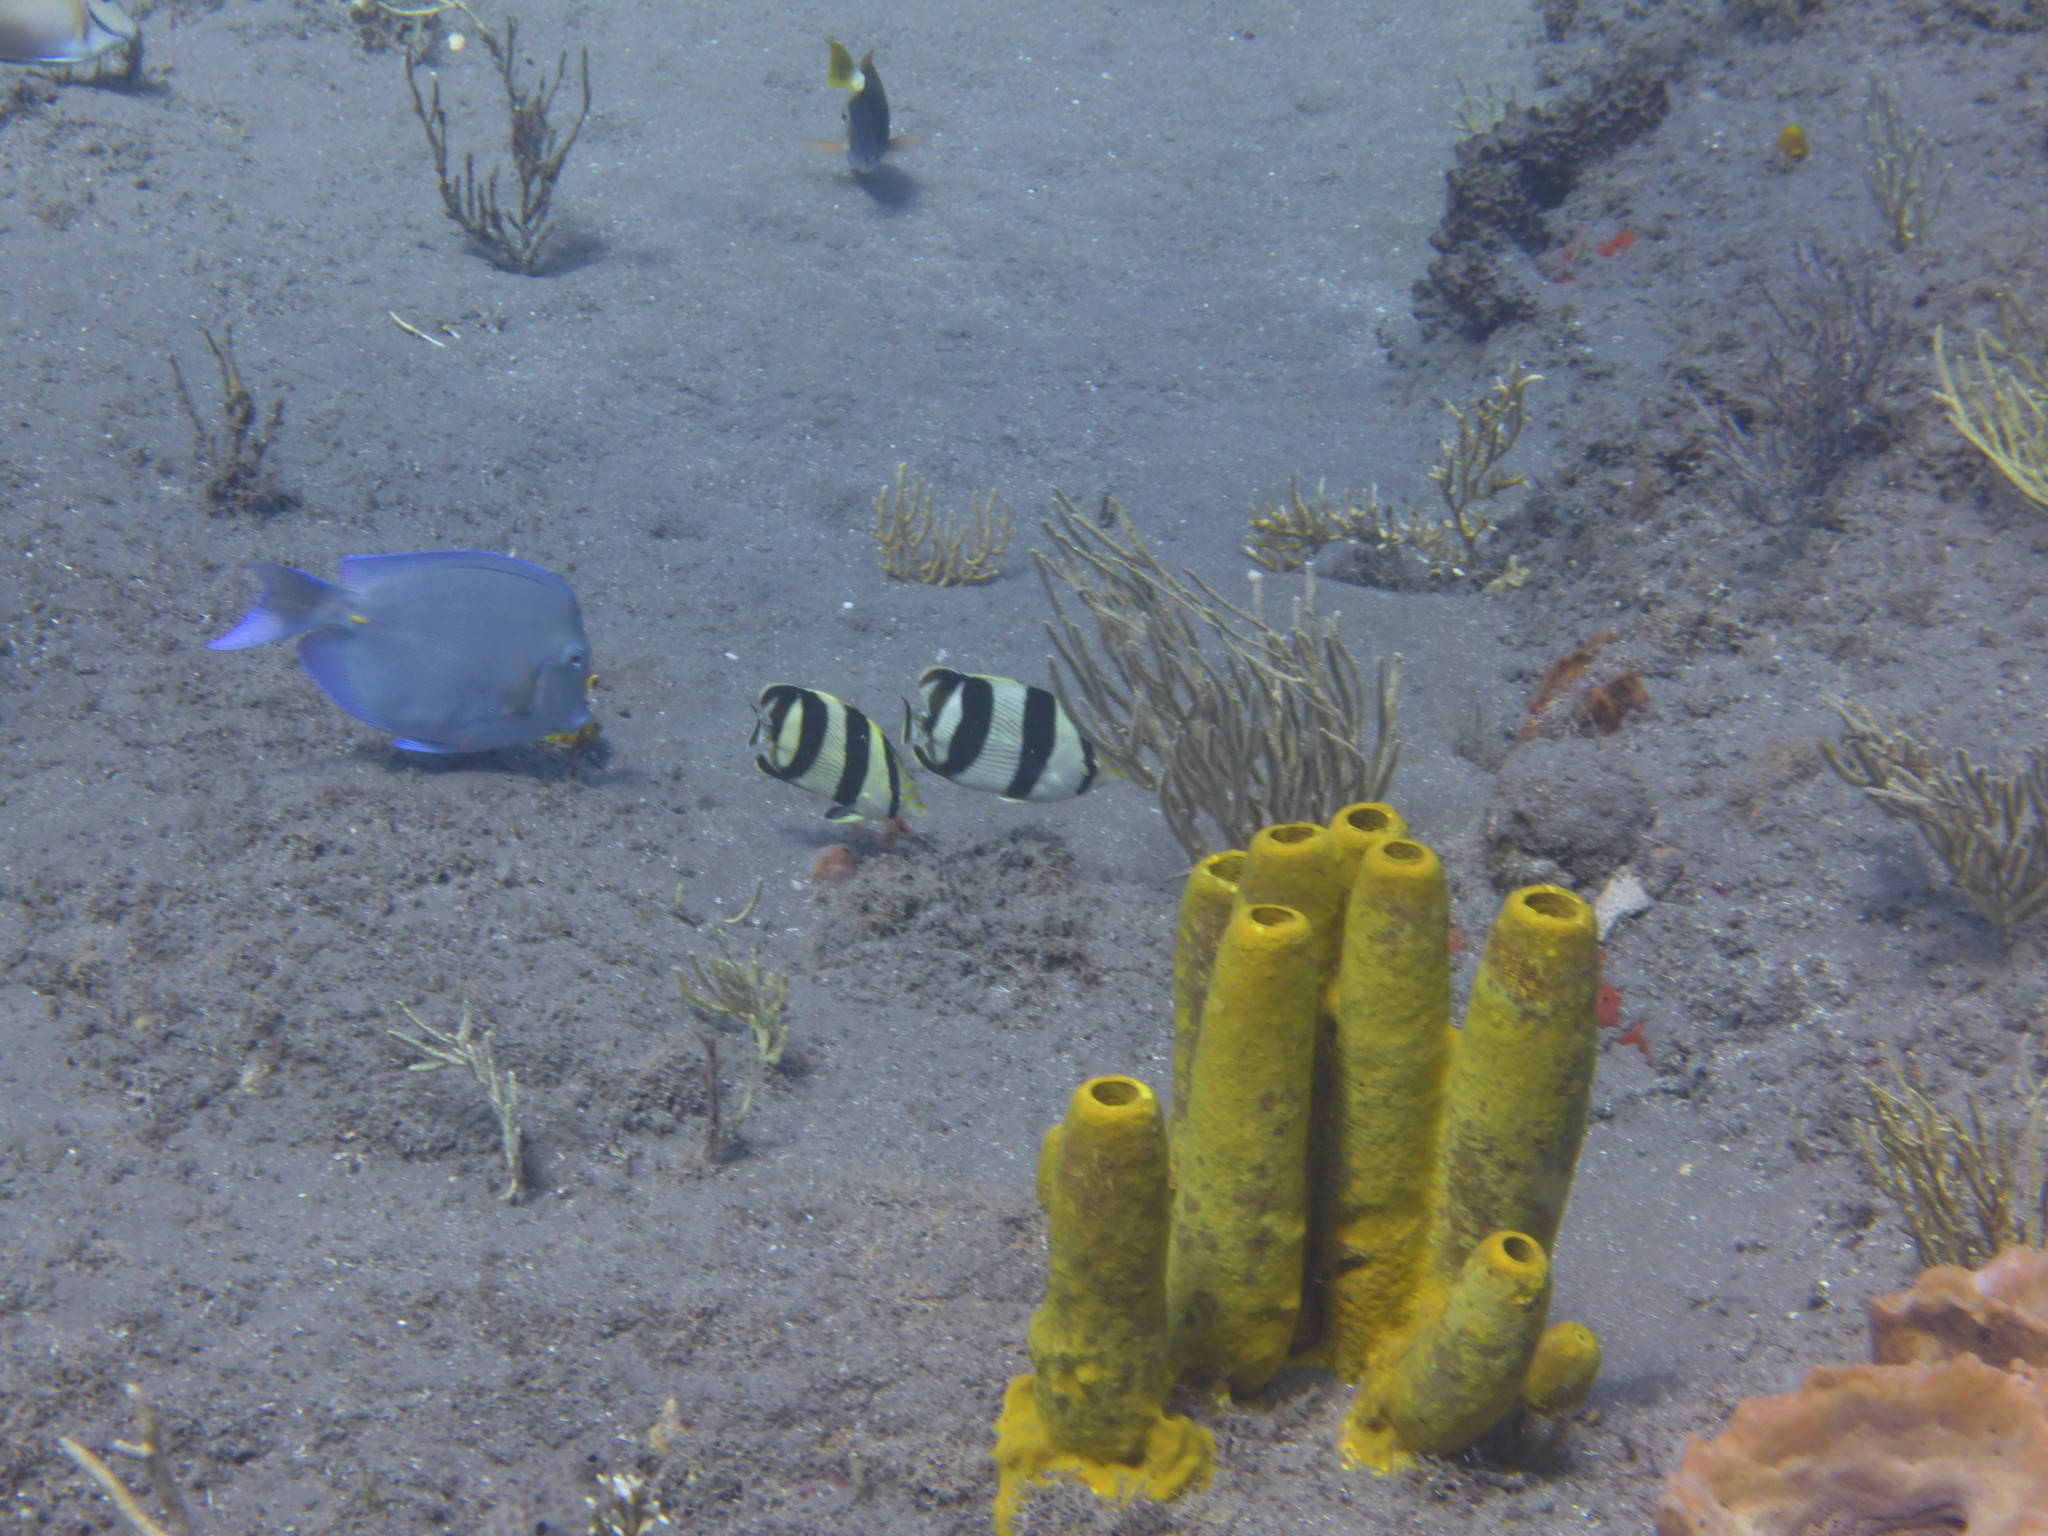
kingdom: Animalia
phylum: Chordata
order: Perciformes
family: Chaetodontidae
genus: Chaetodon
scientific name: Chaetodon striatus
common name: Banded butterflyfish
